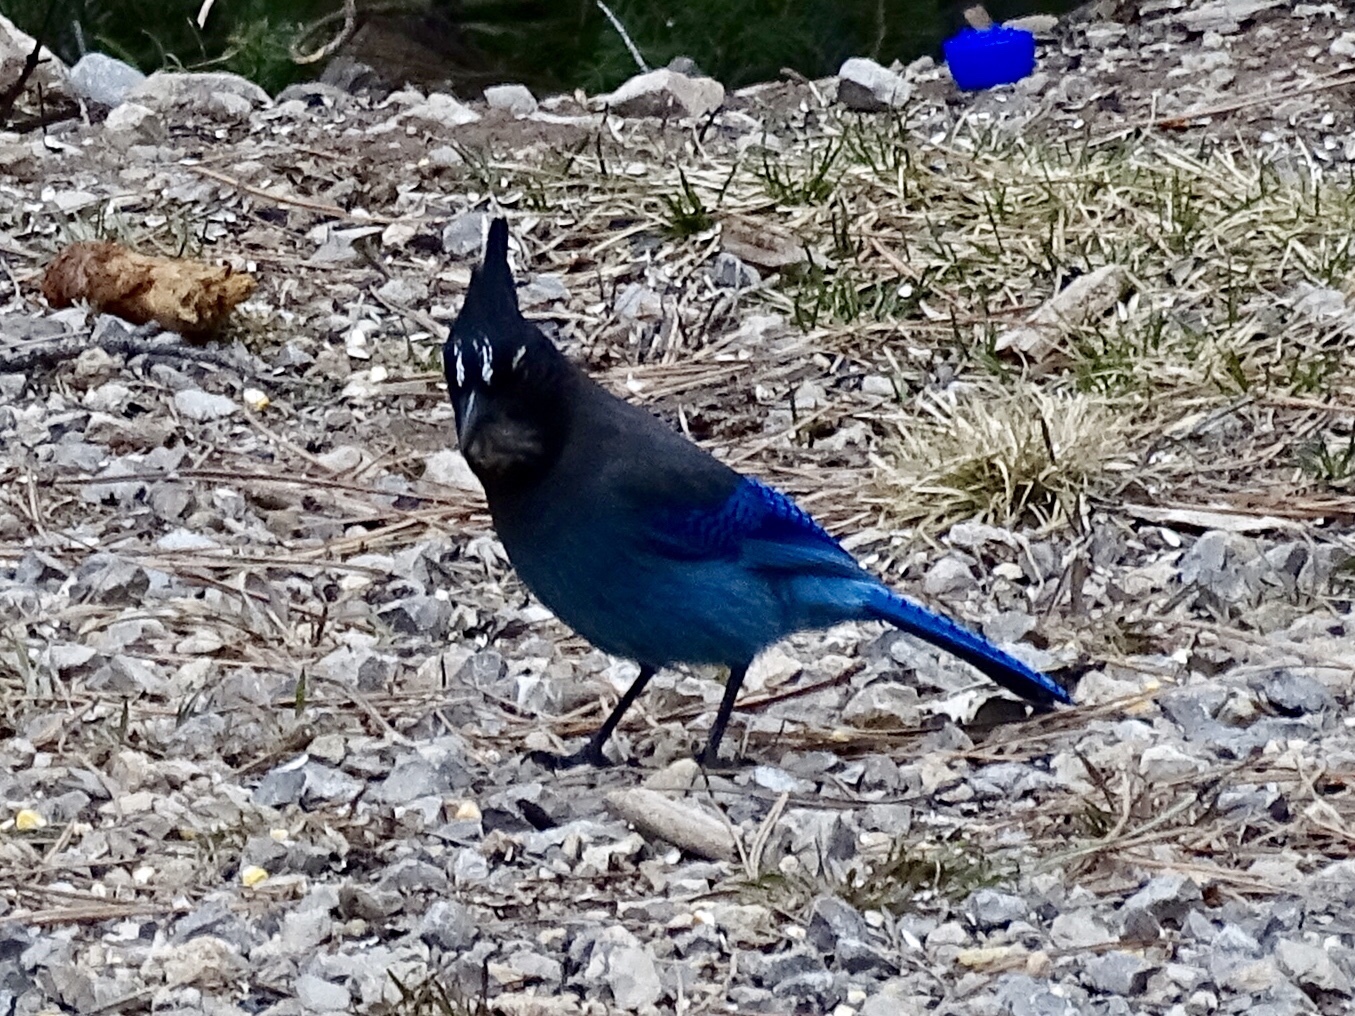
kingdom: Animalia
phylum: Chordata
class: Aves
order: Passeriformes
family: Corvidae
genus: Cyanocitta
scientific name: Cyanocitta stelleri
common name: Steller's jay
